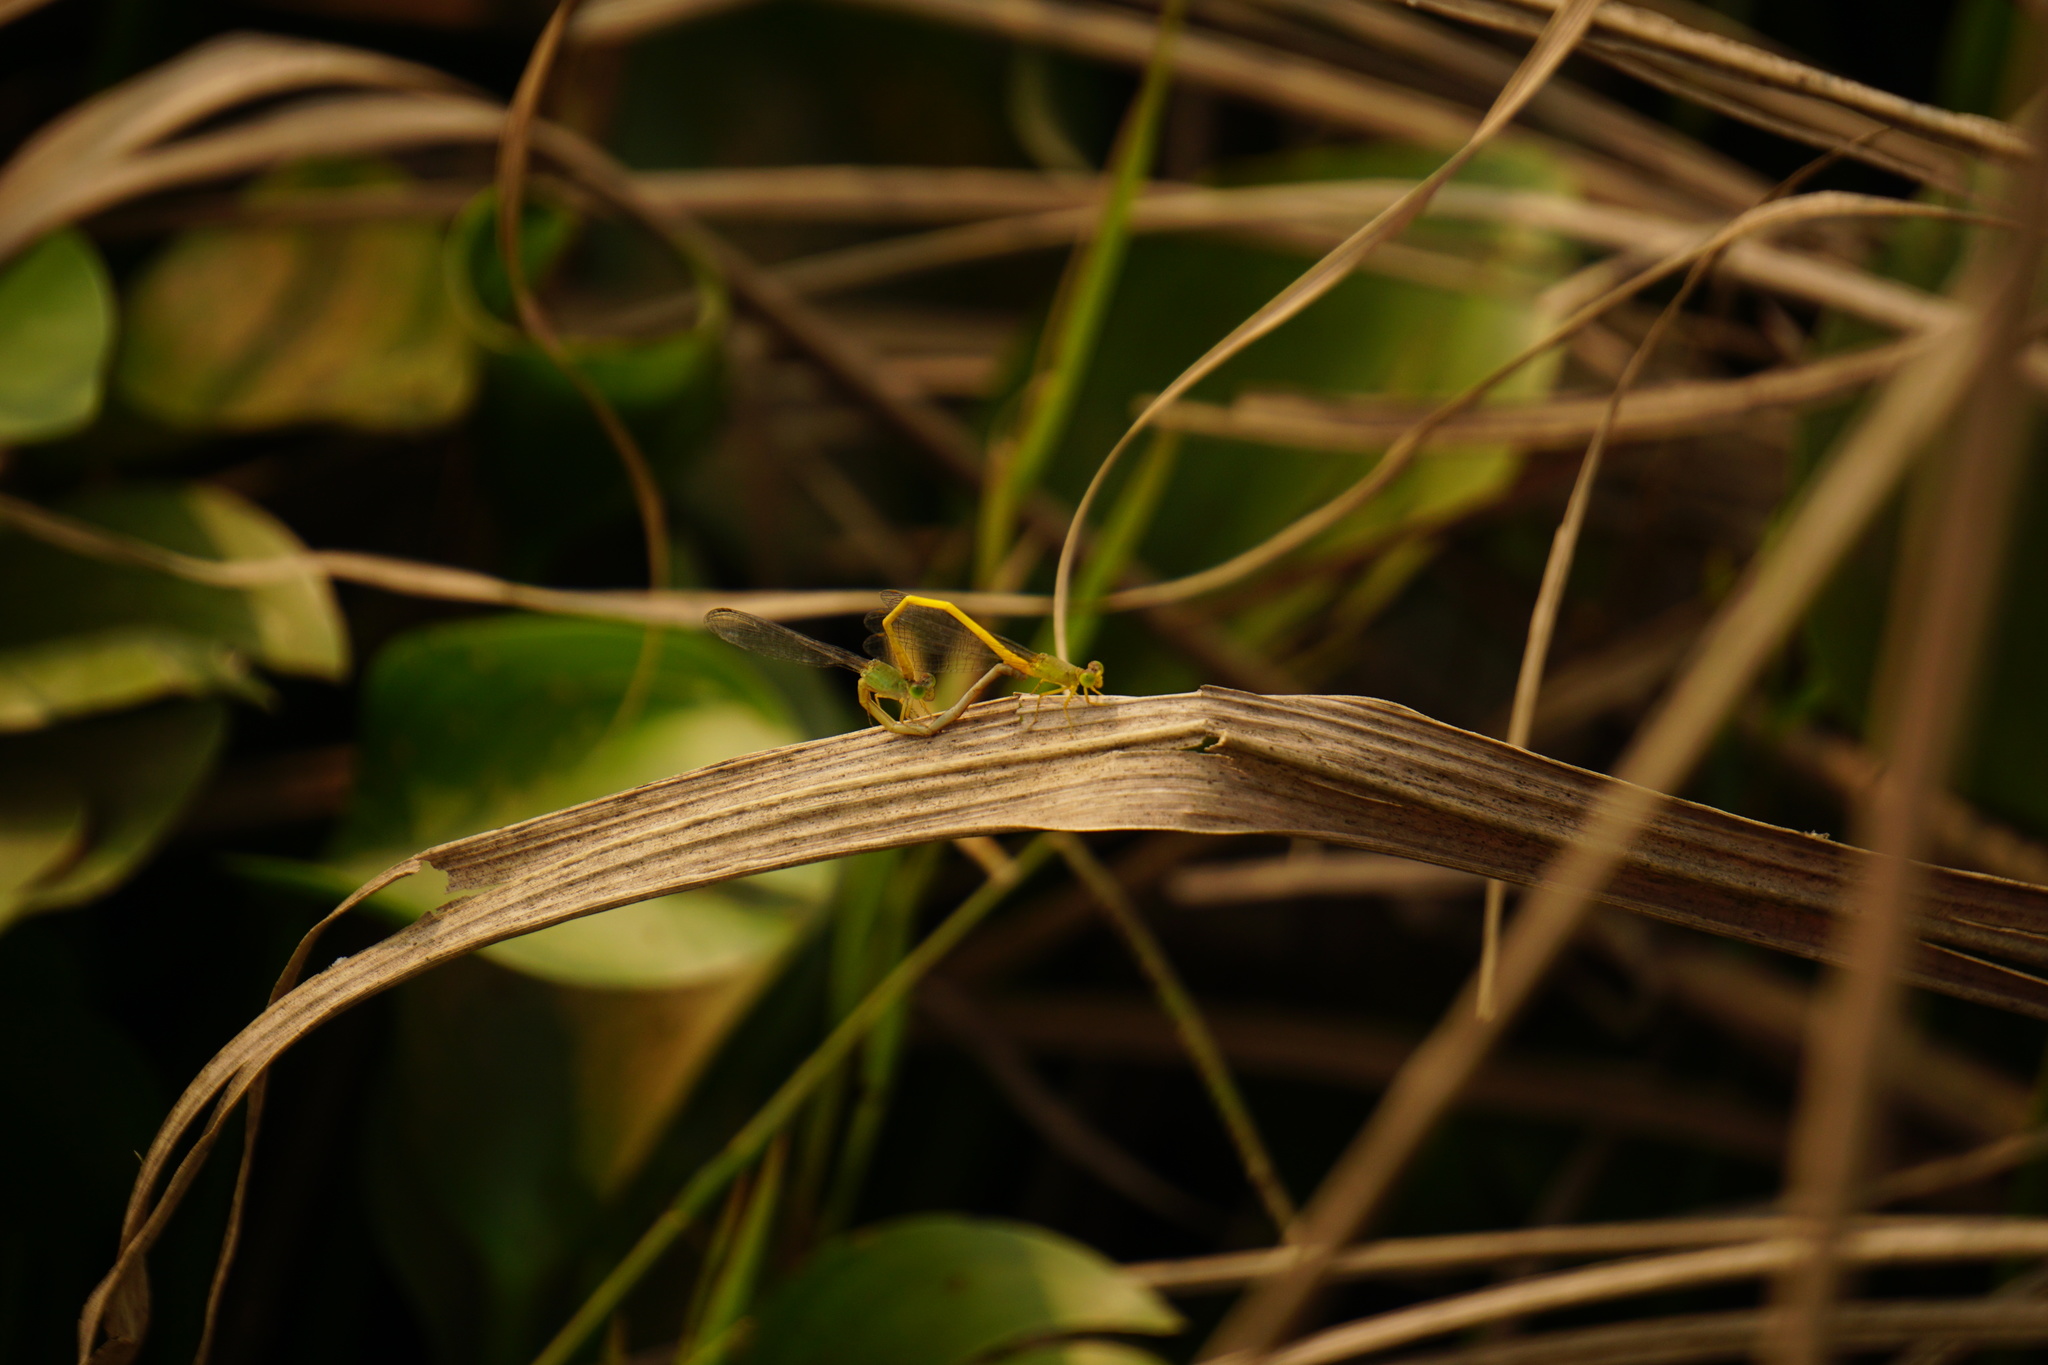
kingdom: Animalia
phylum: Arthropoda
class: Insecta
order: Odonata
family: Coenagrionidae
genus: Ceriagrion
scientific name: Ceriagrion coromandelianum
